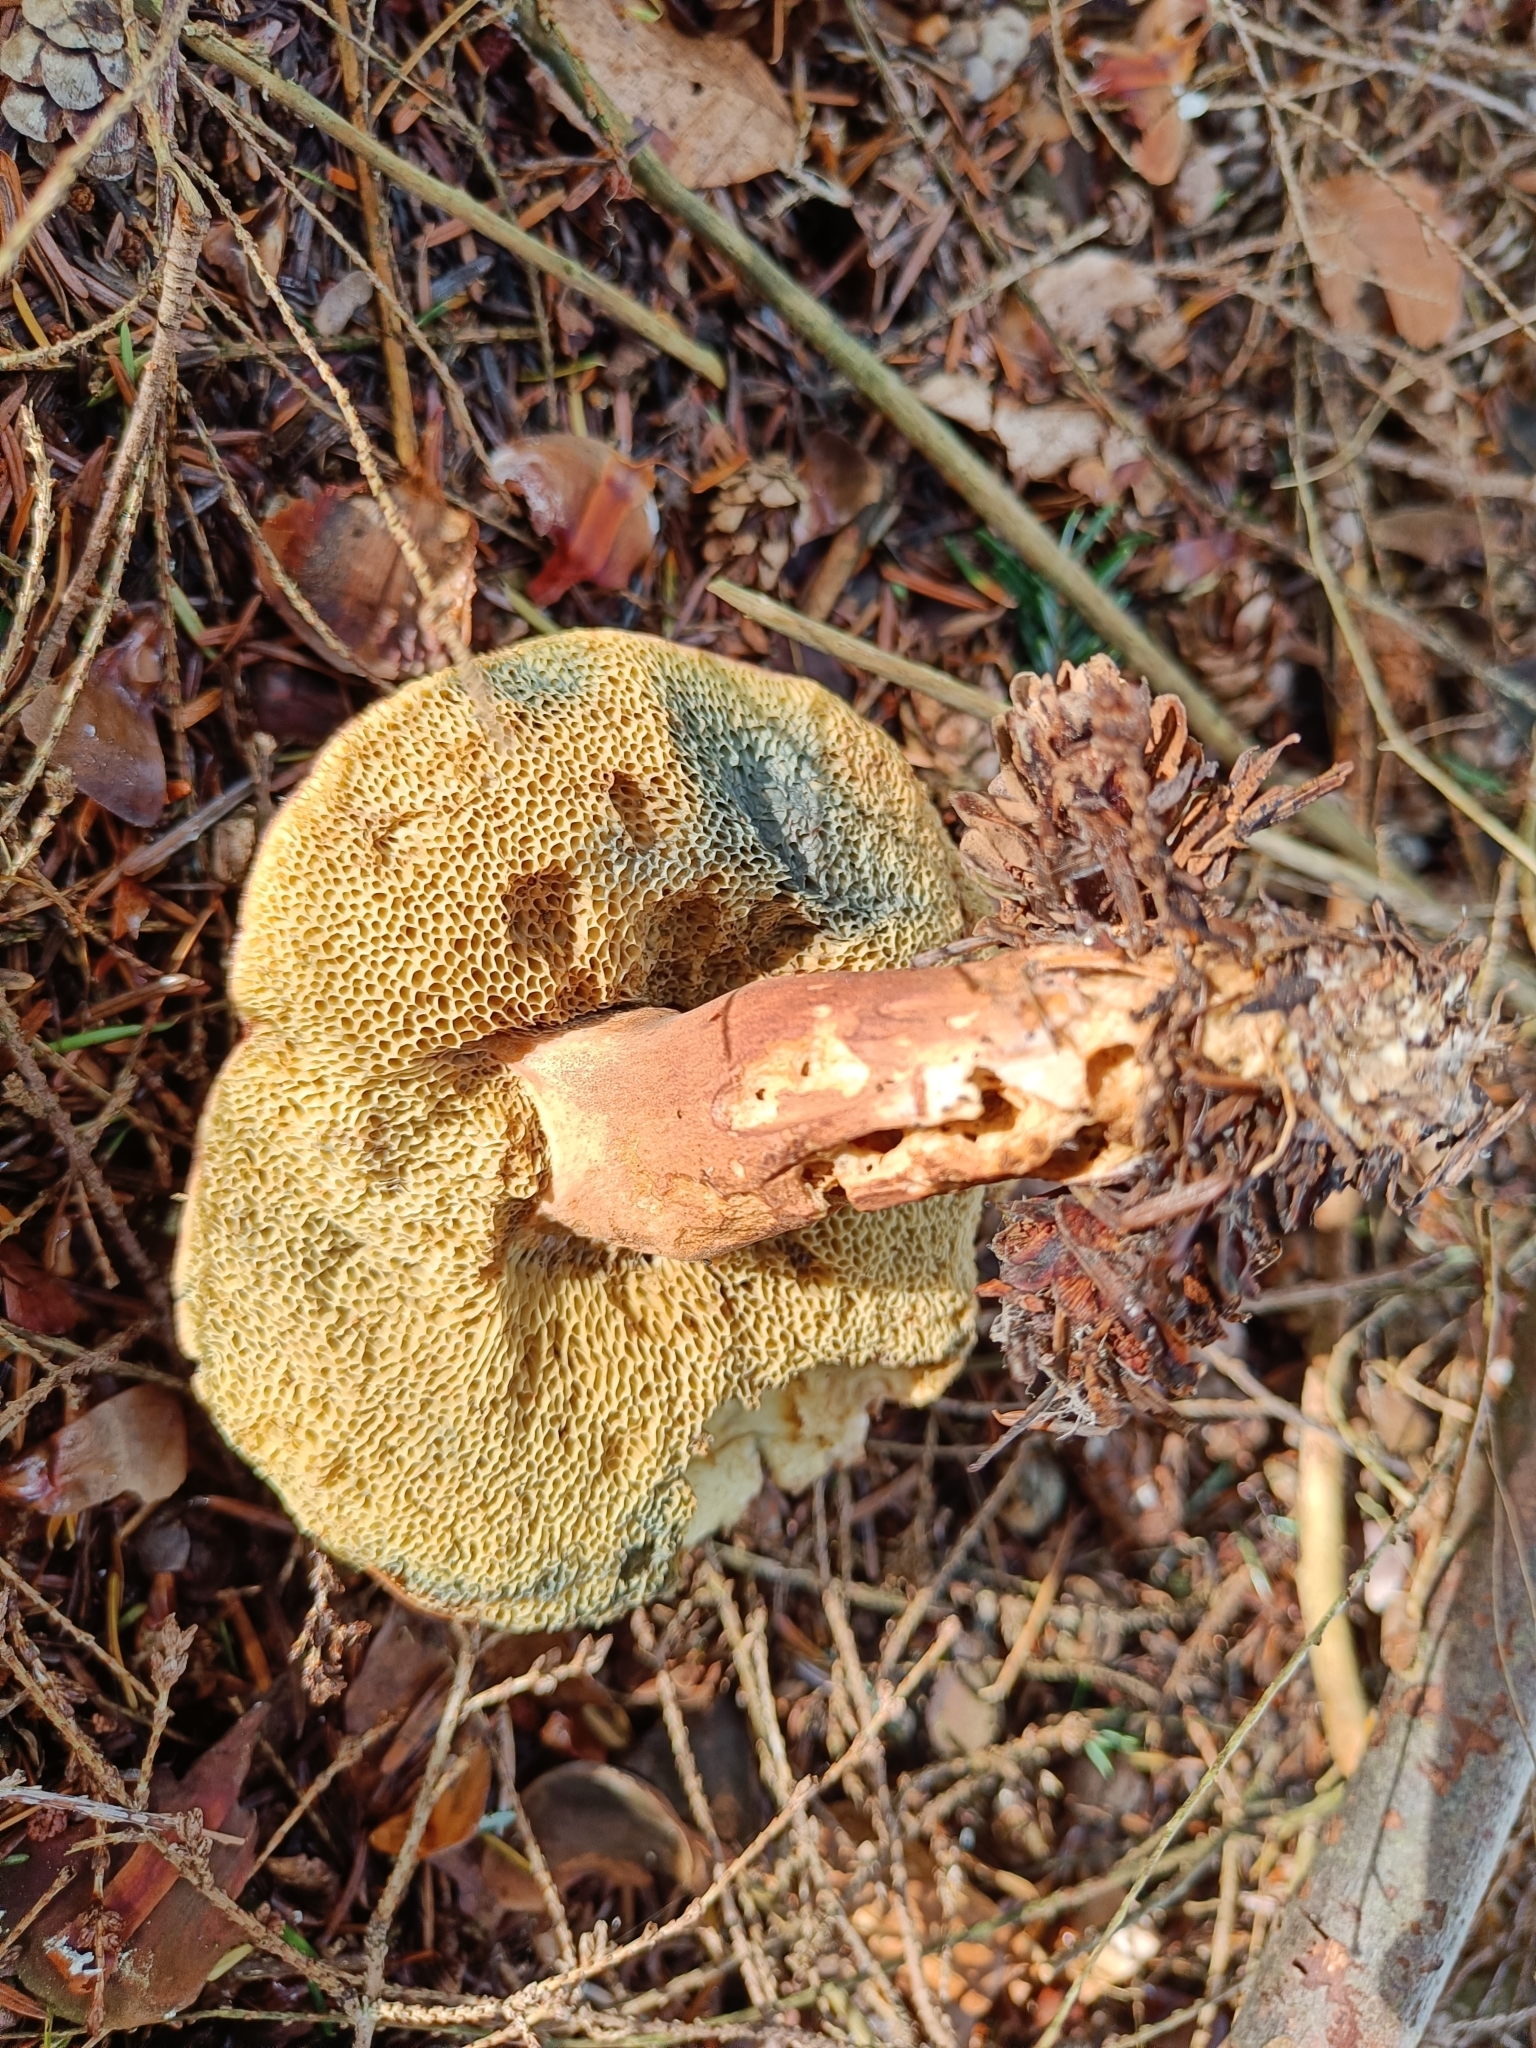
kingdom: Fungi
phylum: Basidiomycota
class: Agaricomycetes
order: Boletales
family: Boletaceae
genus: Imleria
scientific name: Imleria badia
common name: Bay bolete
